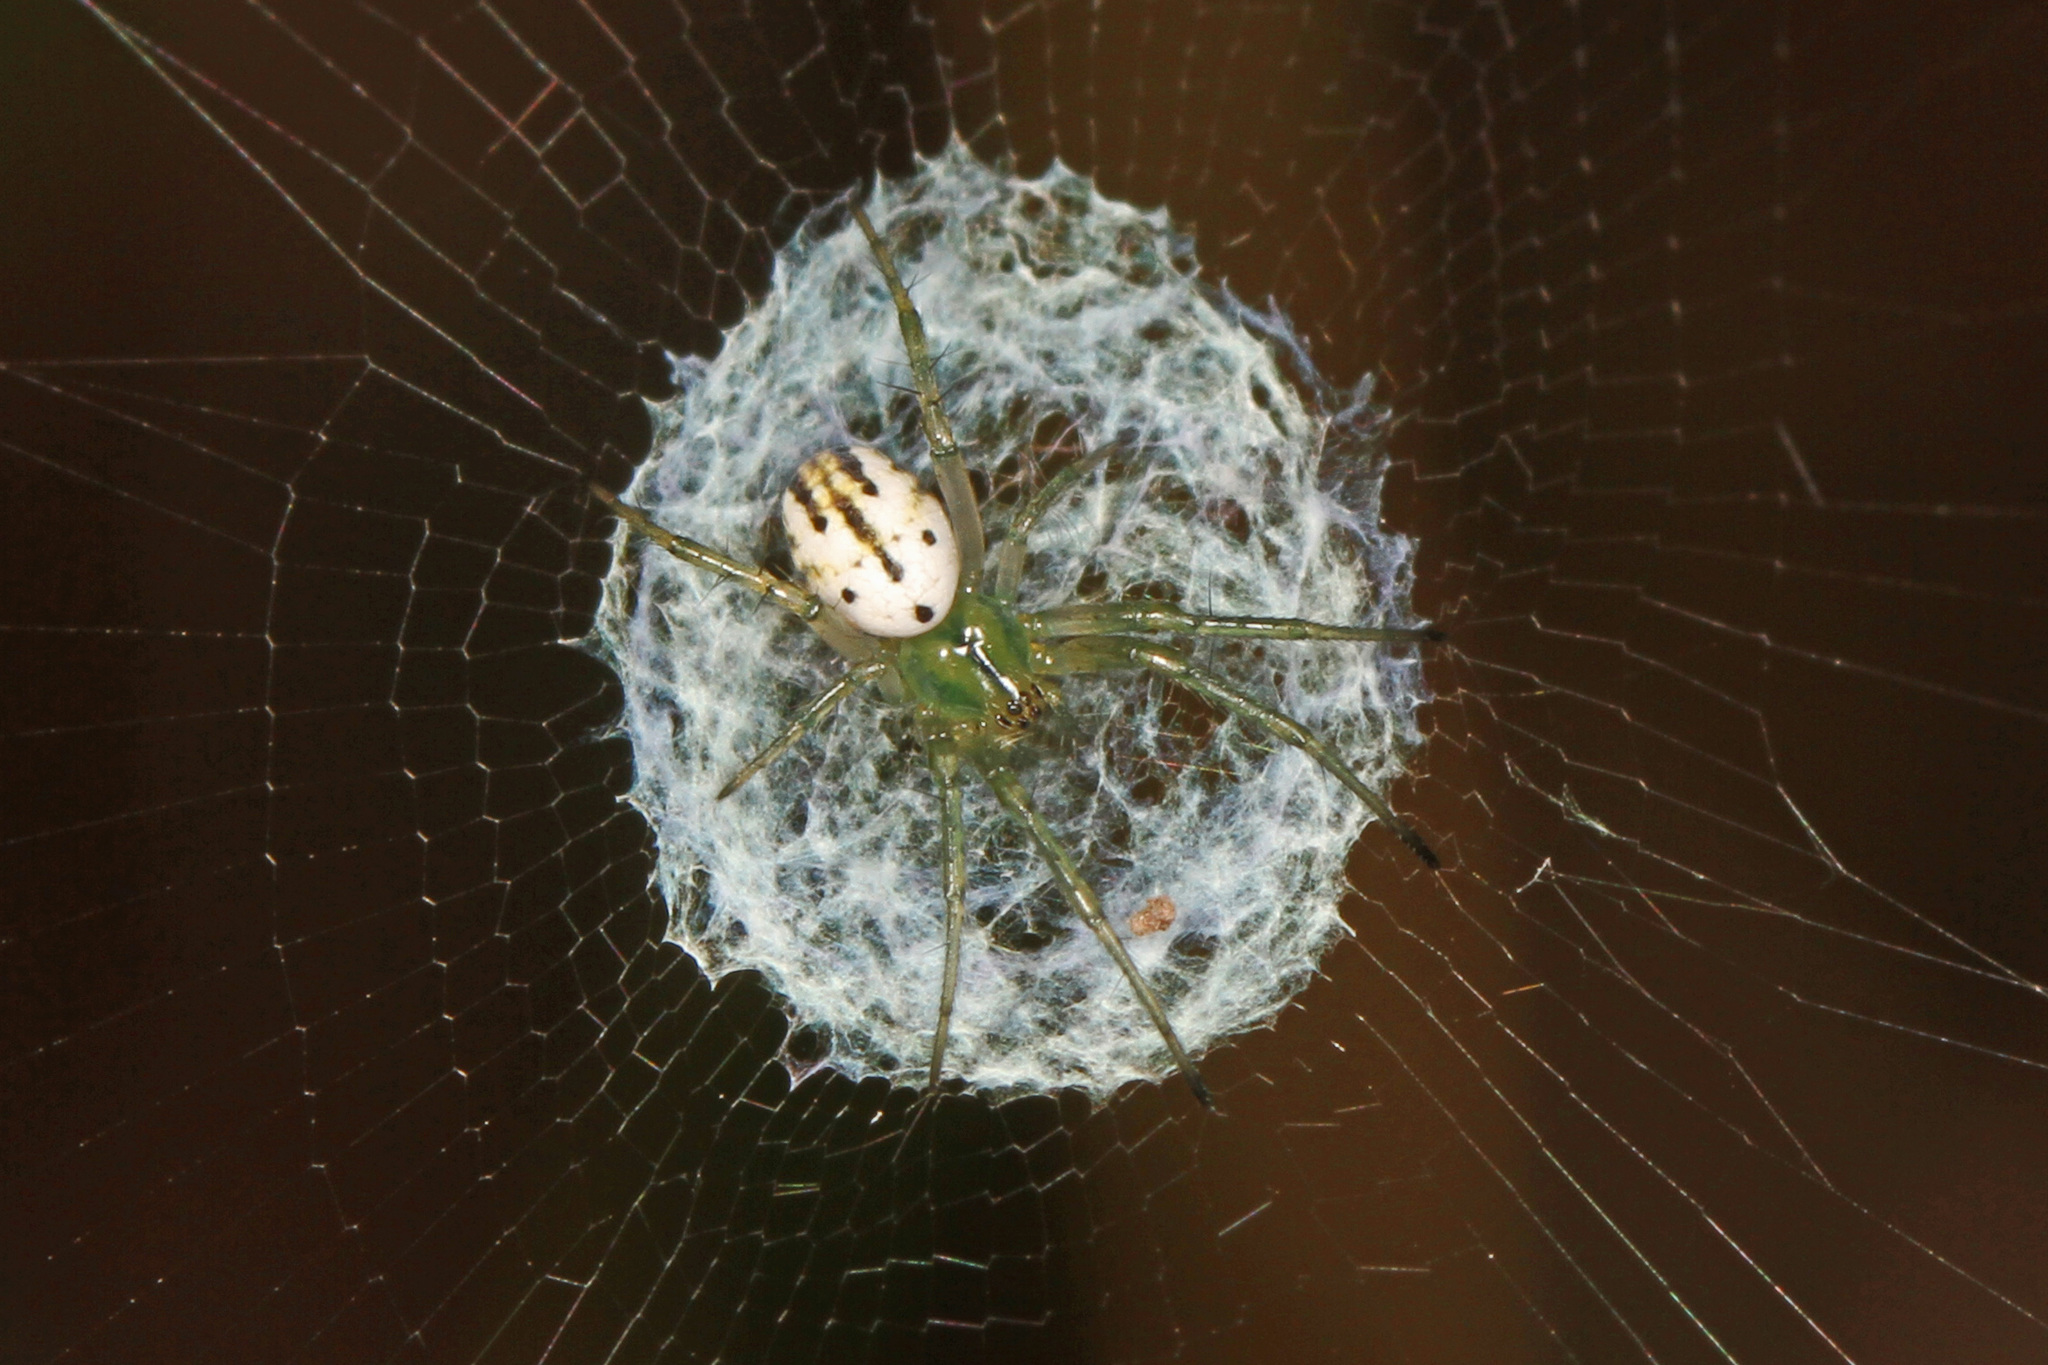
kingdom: Animalia
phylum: Arthropoda
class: Arachnida
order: Araneae
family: Araneidae
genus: Mangora
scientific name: Mangora gibberosa
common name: Lined orbweaver
